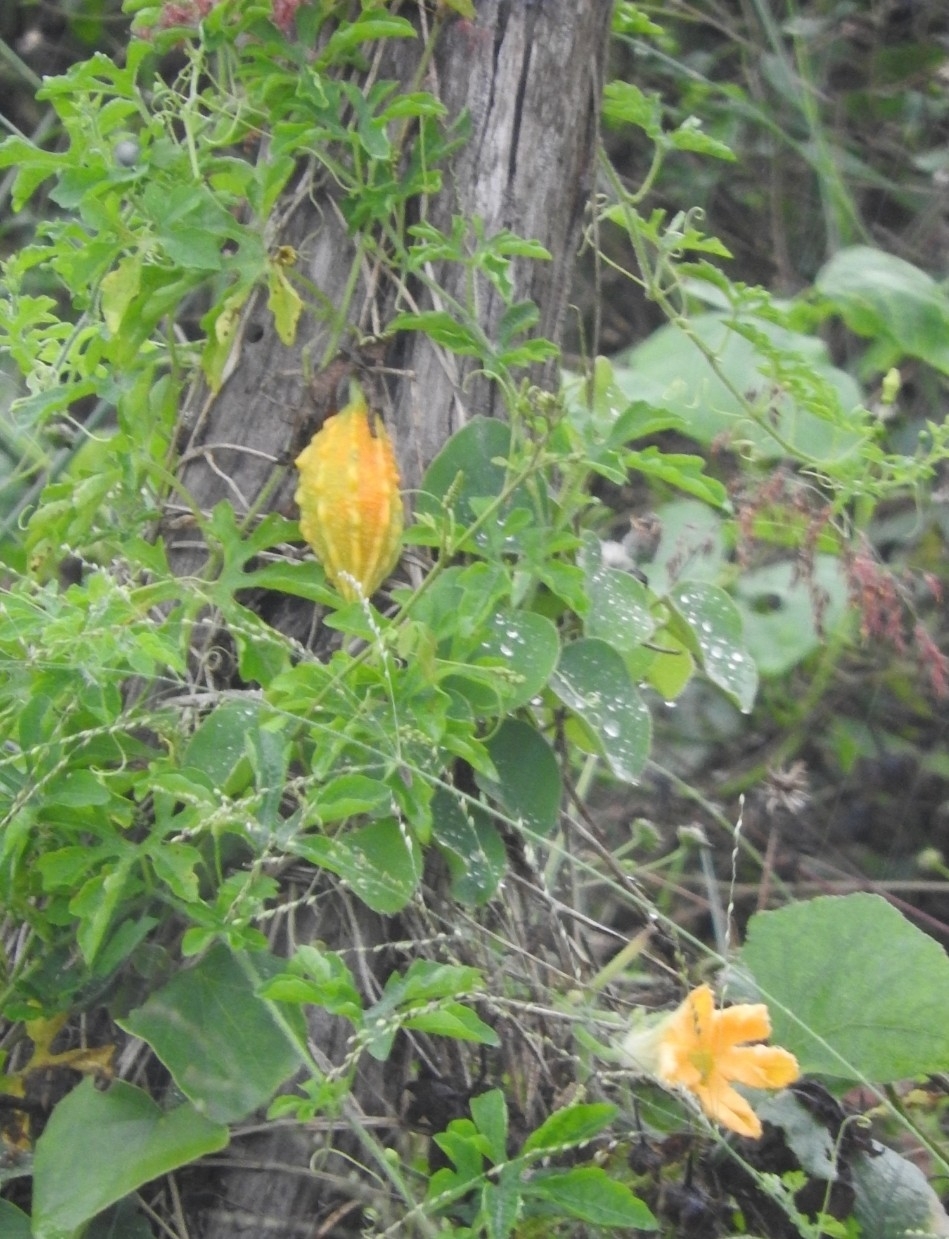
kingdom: Plantae
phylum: Tracheophyta
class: Magnoliopsida
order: Cucurbitales
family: Cucurbitaceae
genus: Momordica
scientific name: Momordica charantia
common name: Balsampear
